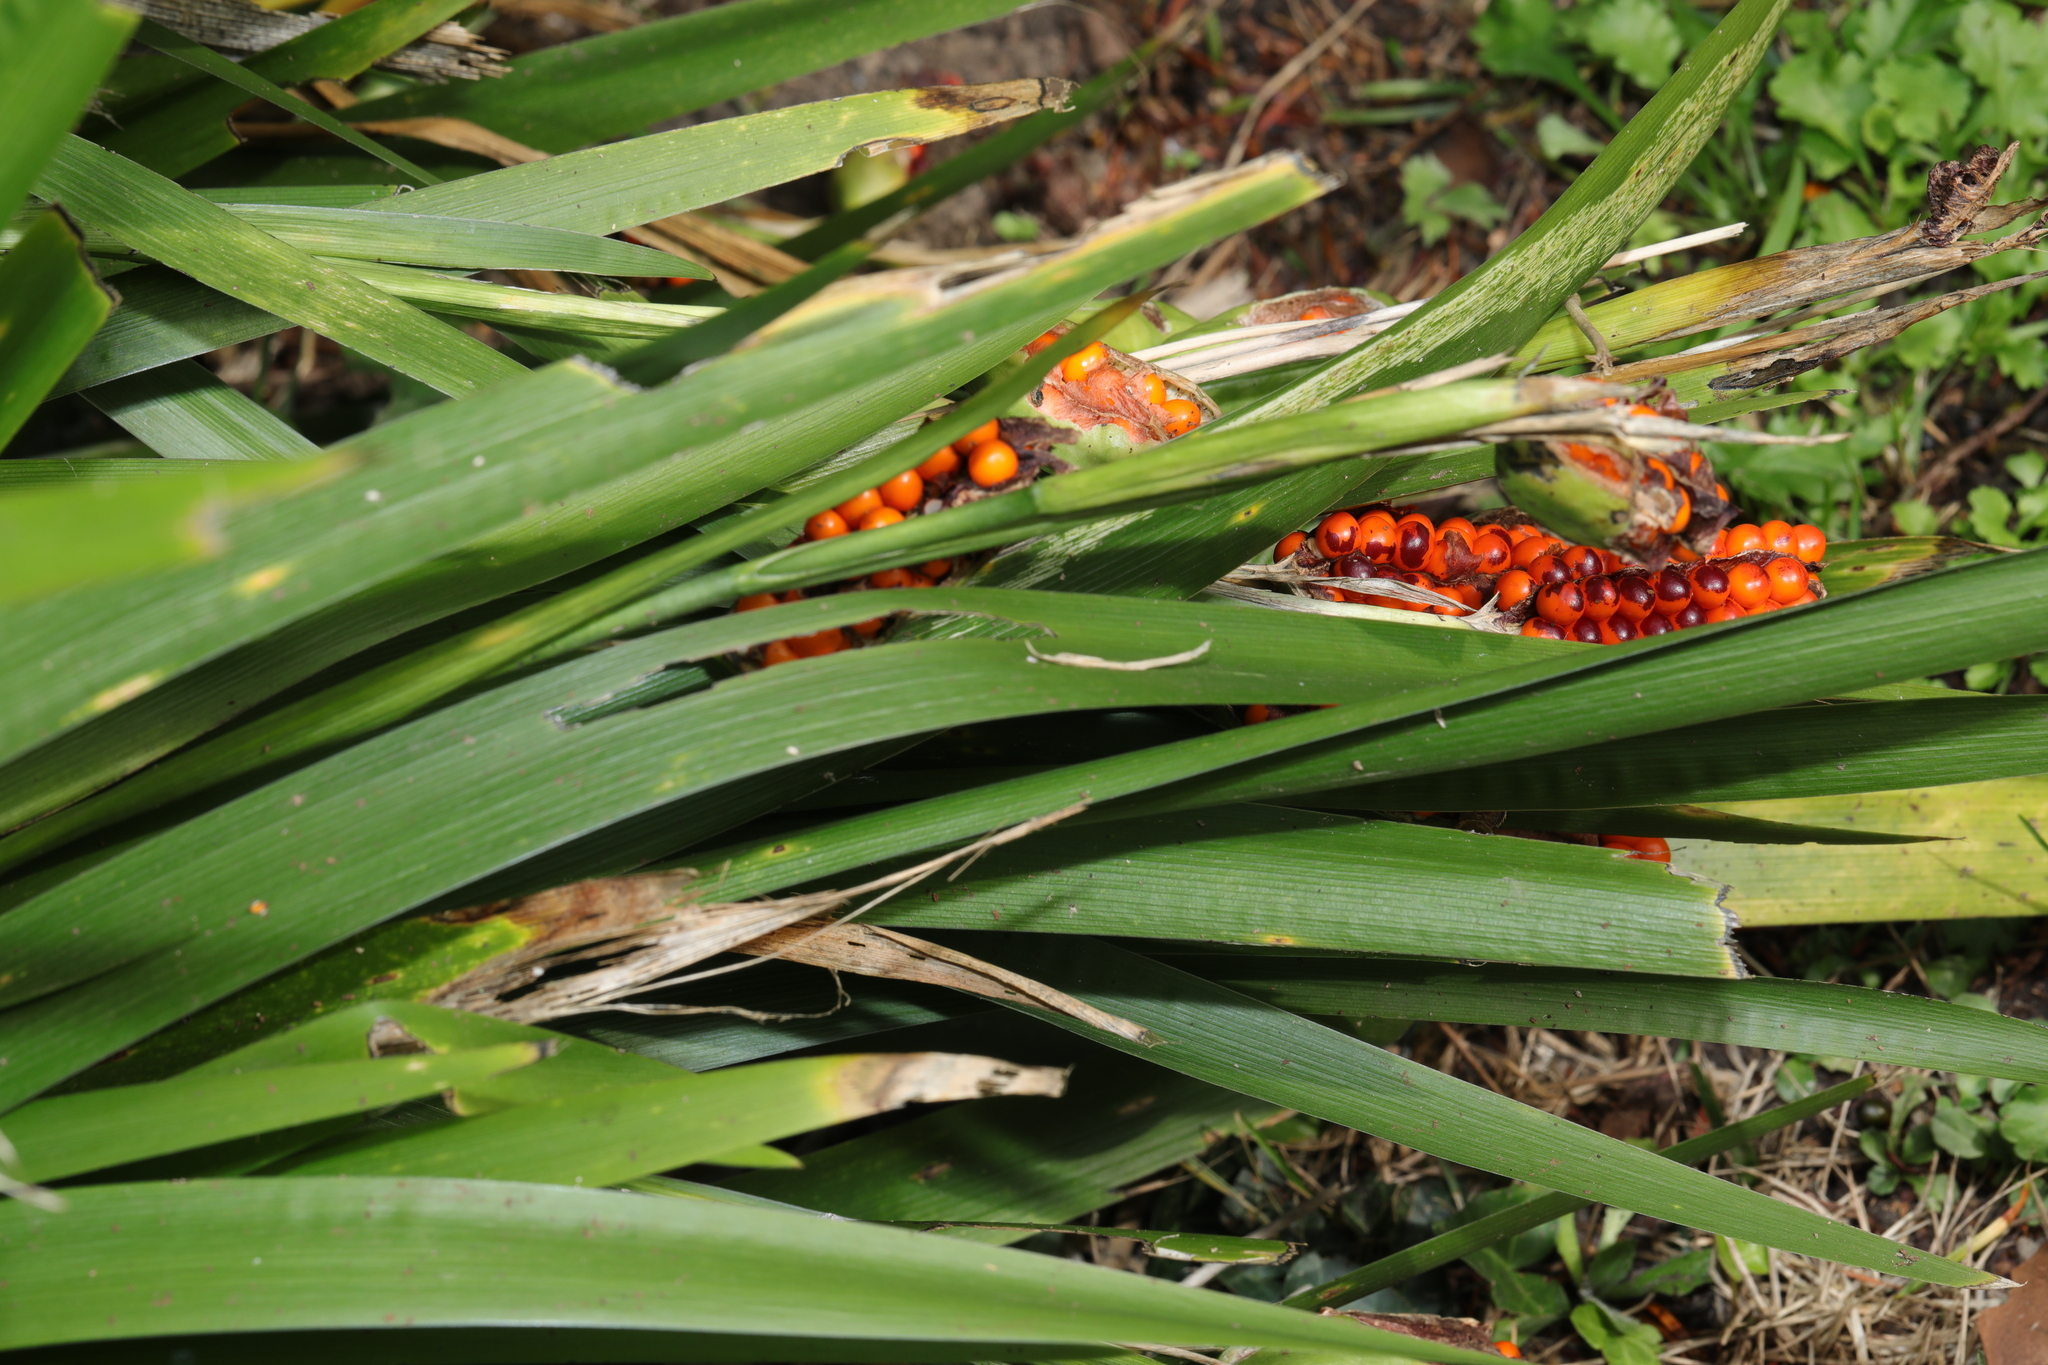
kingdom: Plantae
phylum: Tracheophyta
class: Liliopsida
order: Asparagales
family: Iridaceae
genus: Iris
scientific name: Iris foetidissima
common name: Stinking iris
